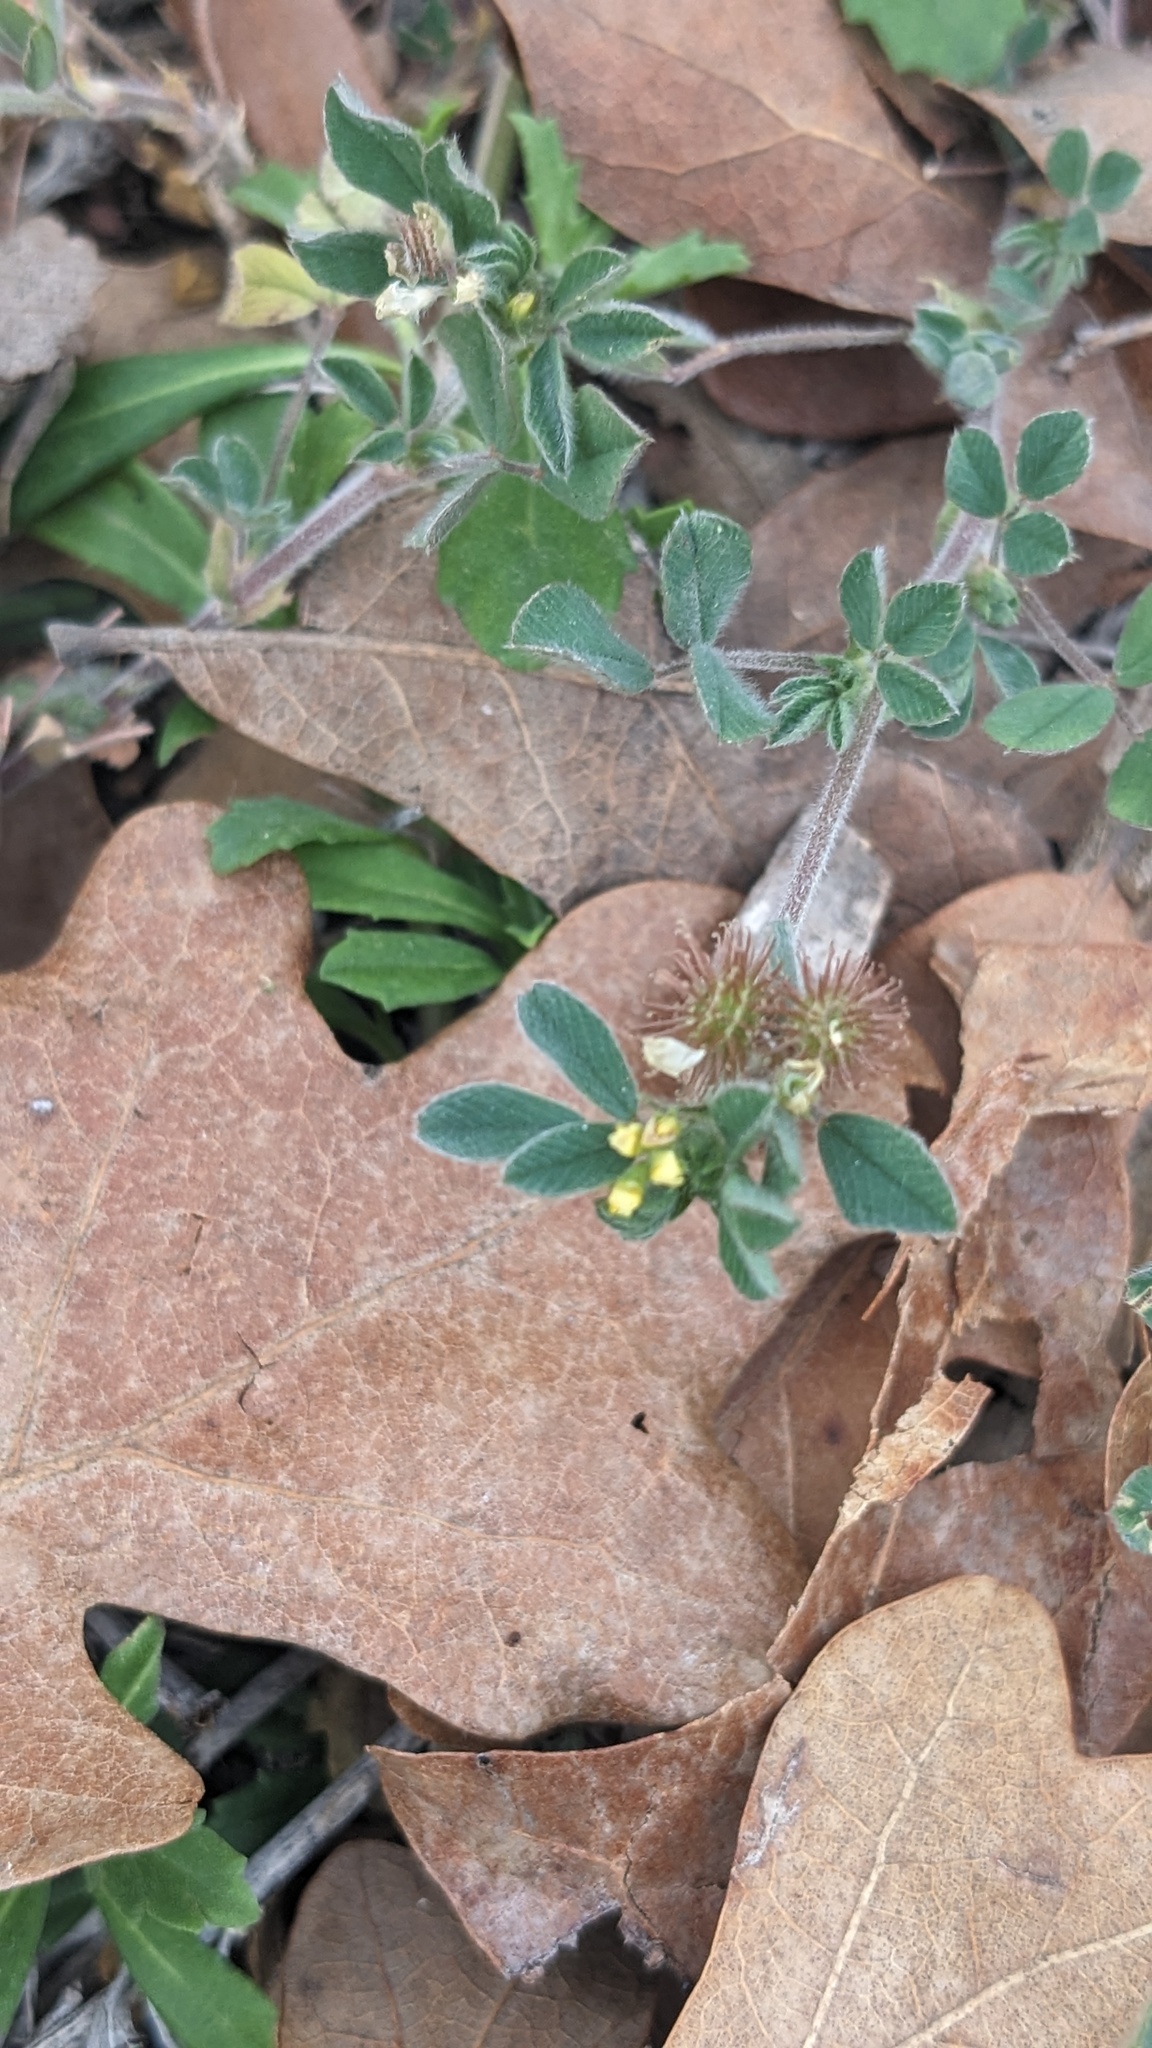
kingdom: Plantae
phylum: Tracheophyta
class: Magnoliopsida
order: Fabales
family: Fabaceae
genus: Medicago
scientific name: Medicago minima
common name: Little bur-clover
